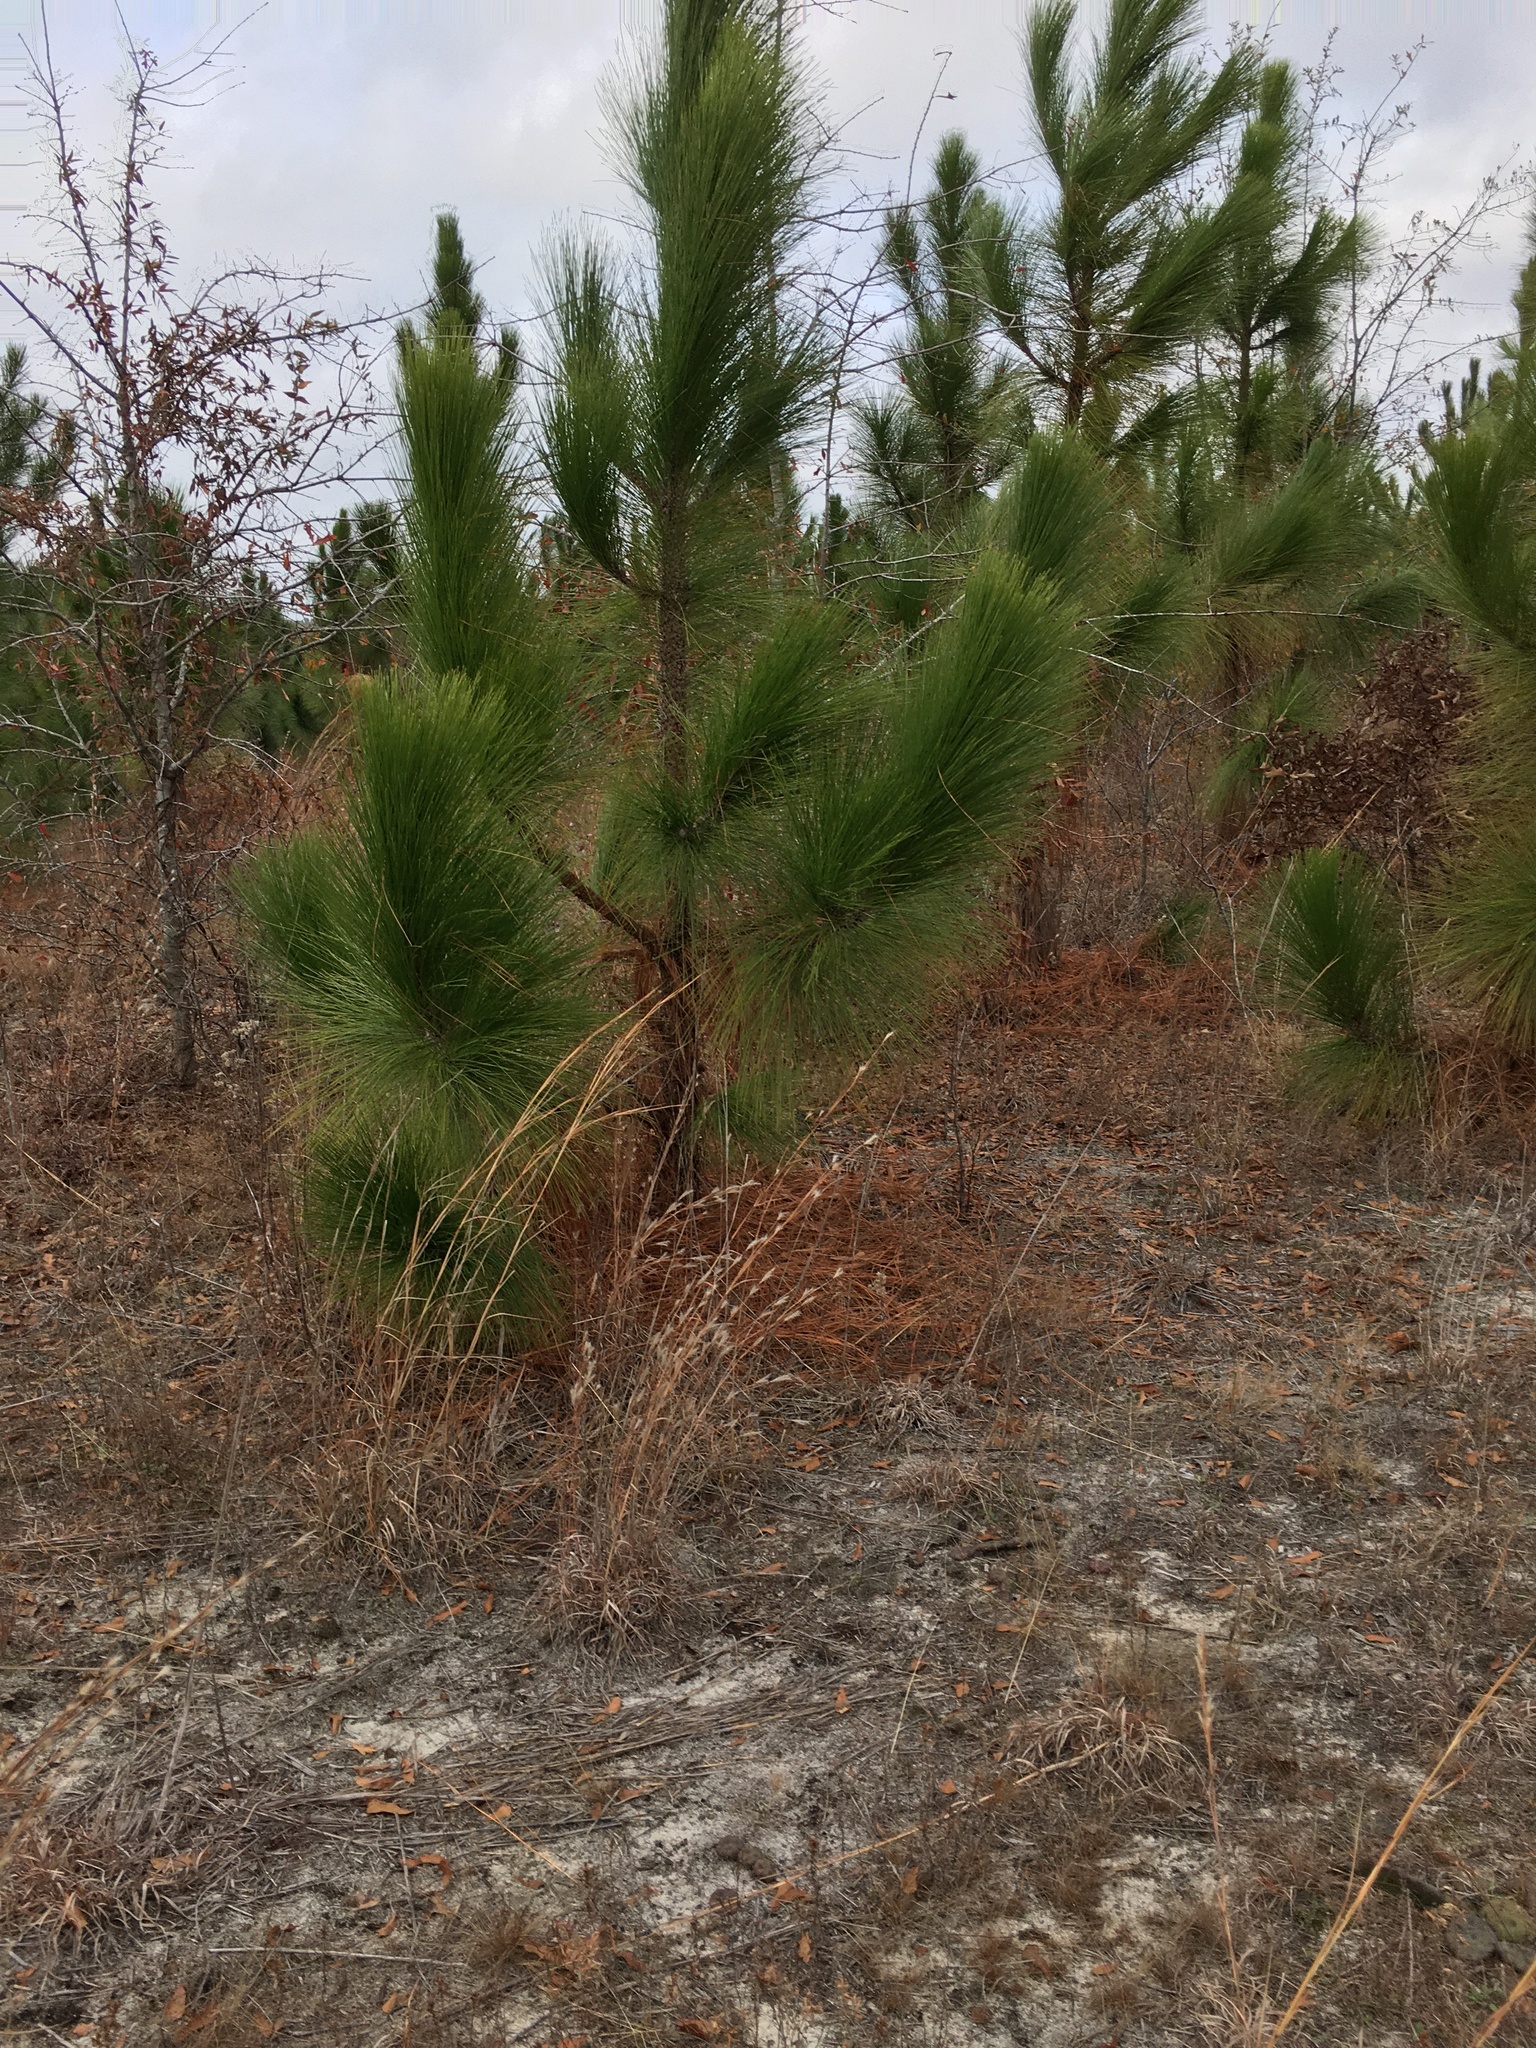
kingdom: Plantae
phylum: Tracheophyta
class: Pinopsida
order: Pinales
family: Pinaceae
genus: Pinus
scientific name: Pinus palustris
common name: Longleaf pine
